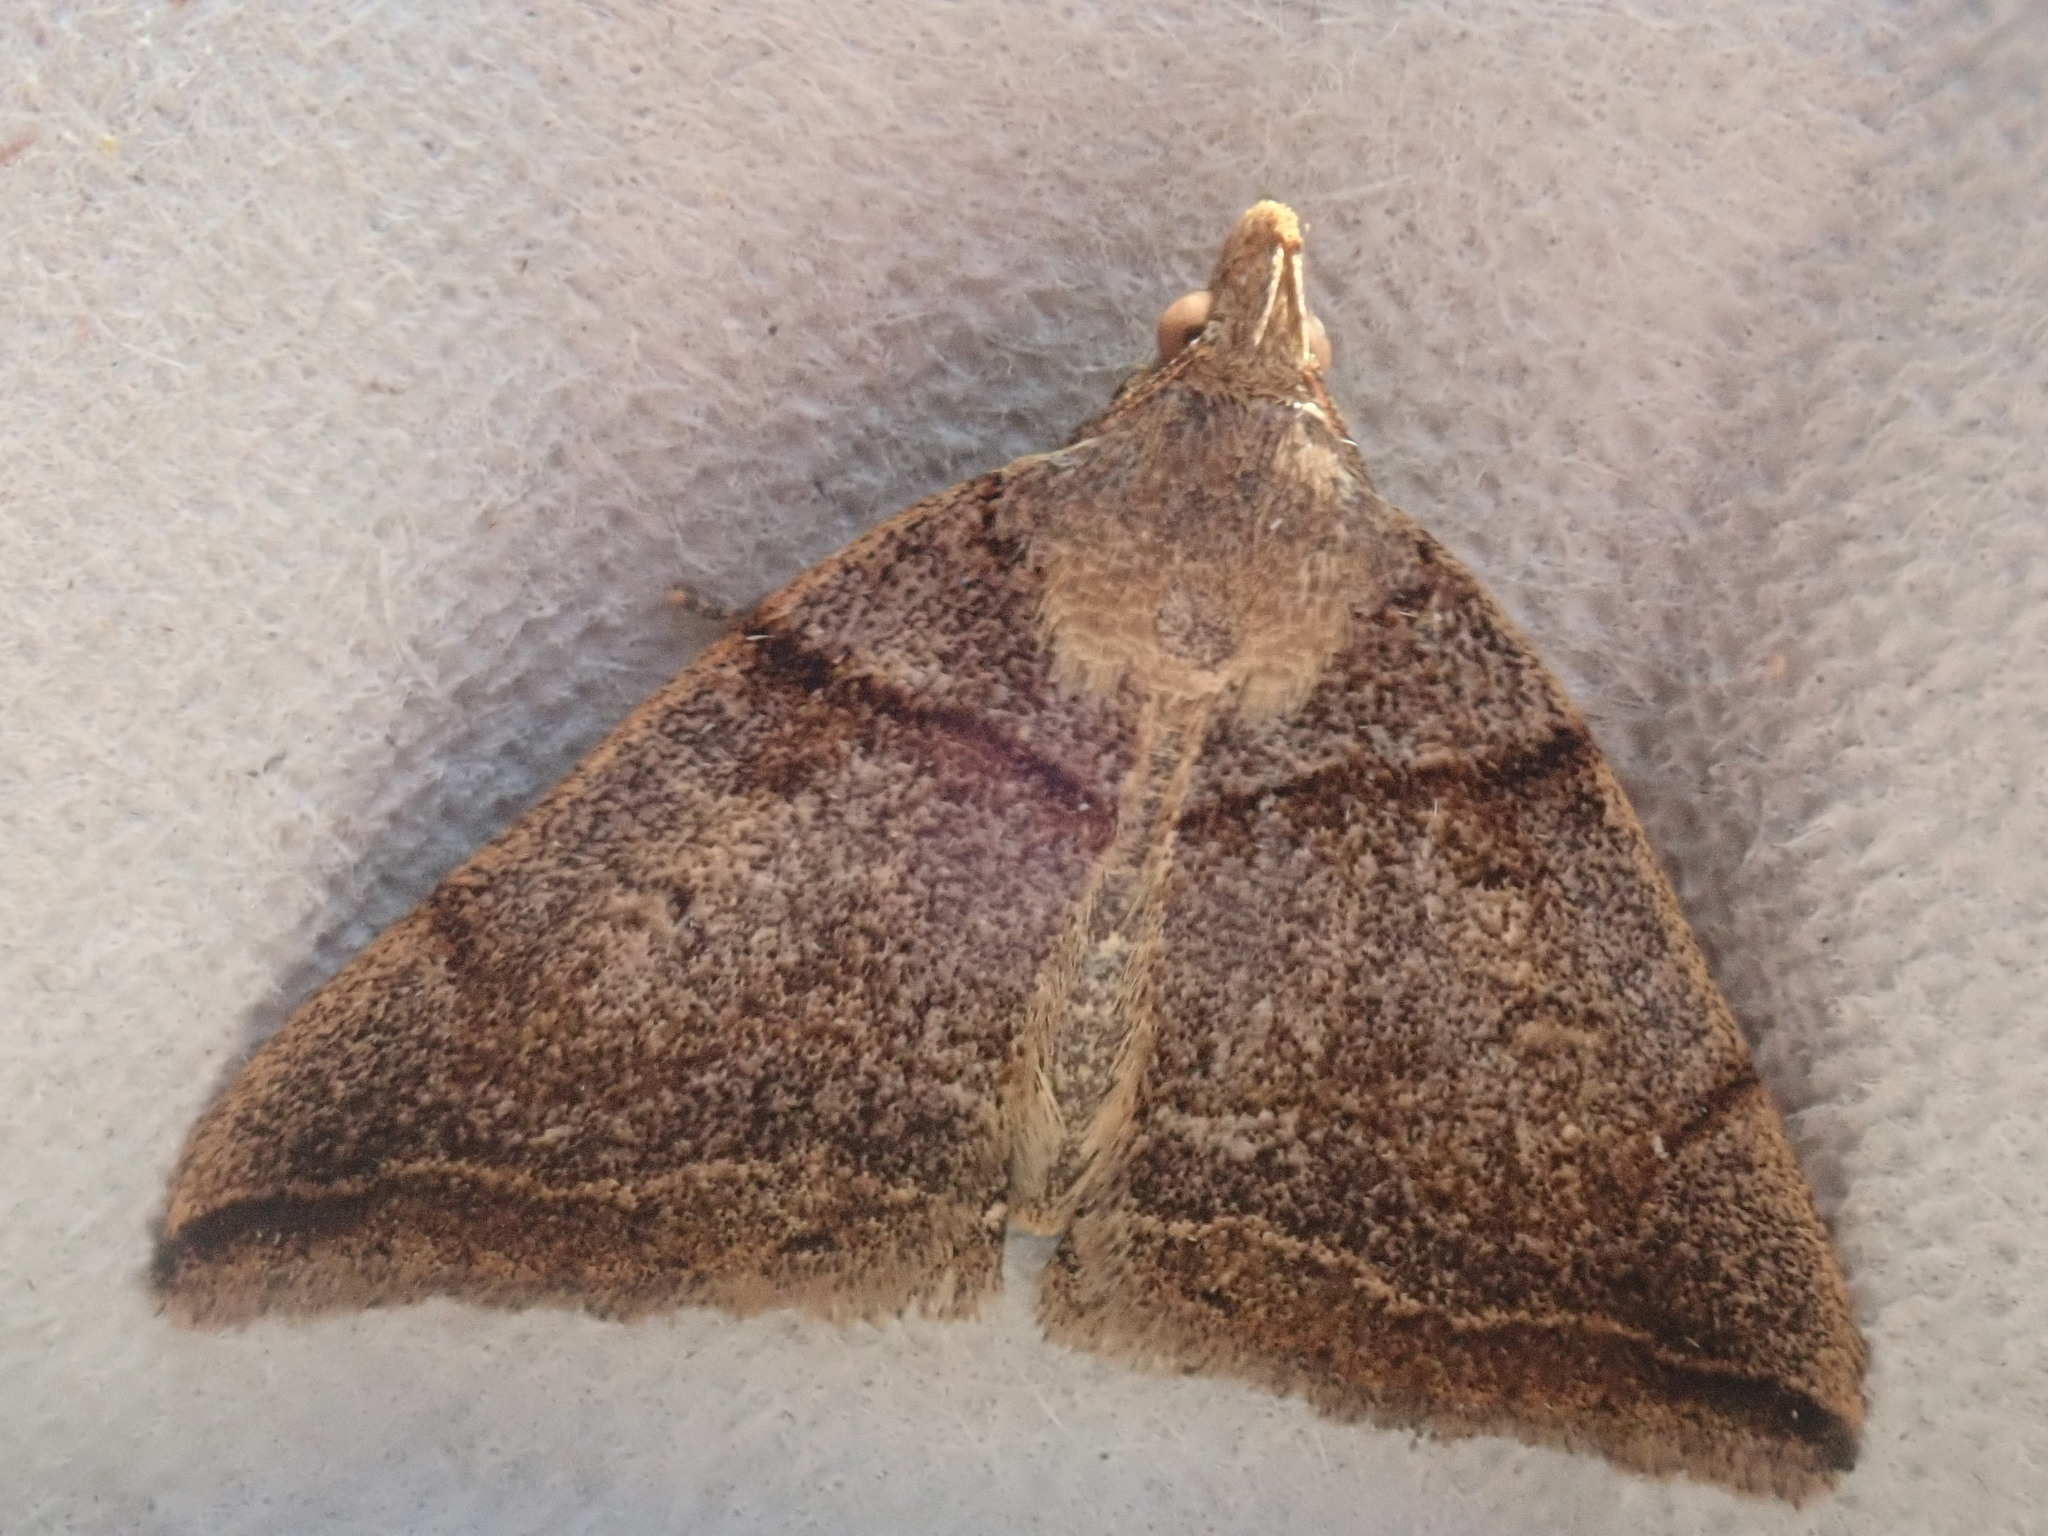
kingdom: Animalia
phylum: Arthropoda
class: Insecta
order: Lepidoptera
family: Erebidae
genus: Zanclognatha
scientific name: Zanclognatha laevigata
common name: Variable fan-foot
